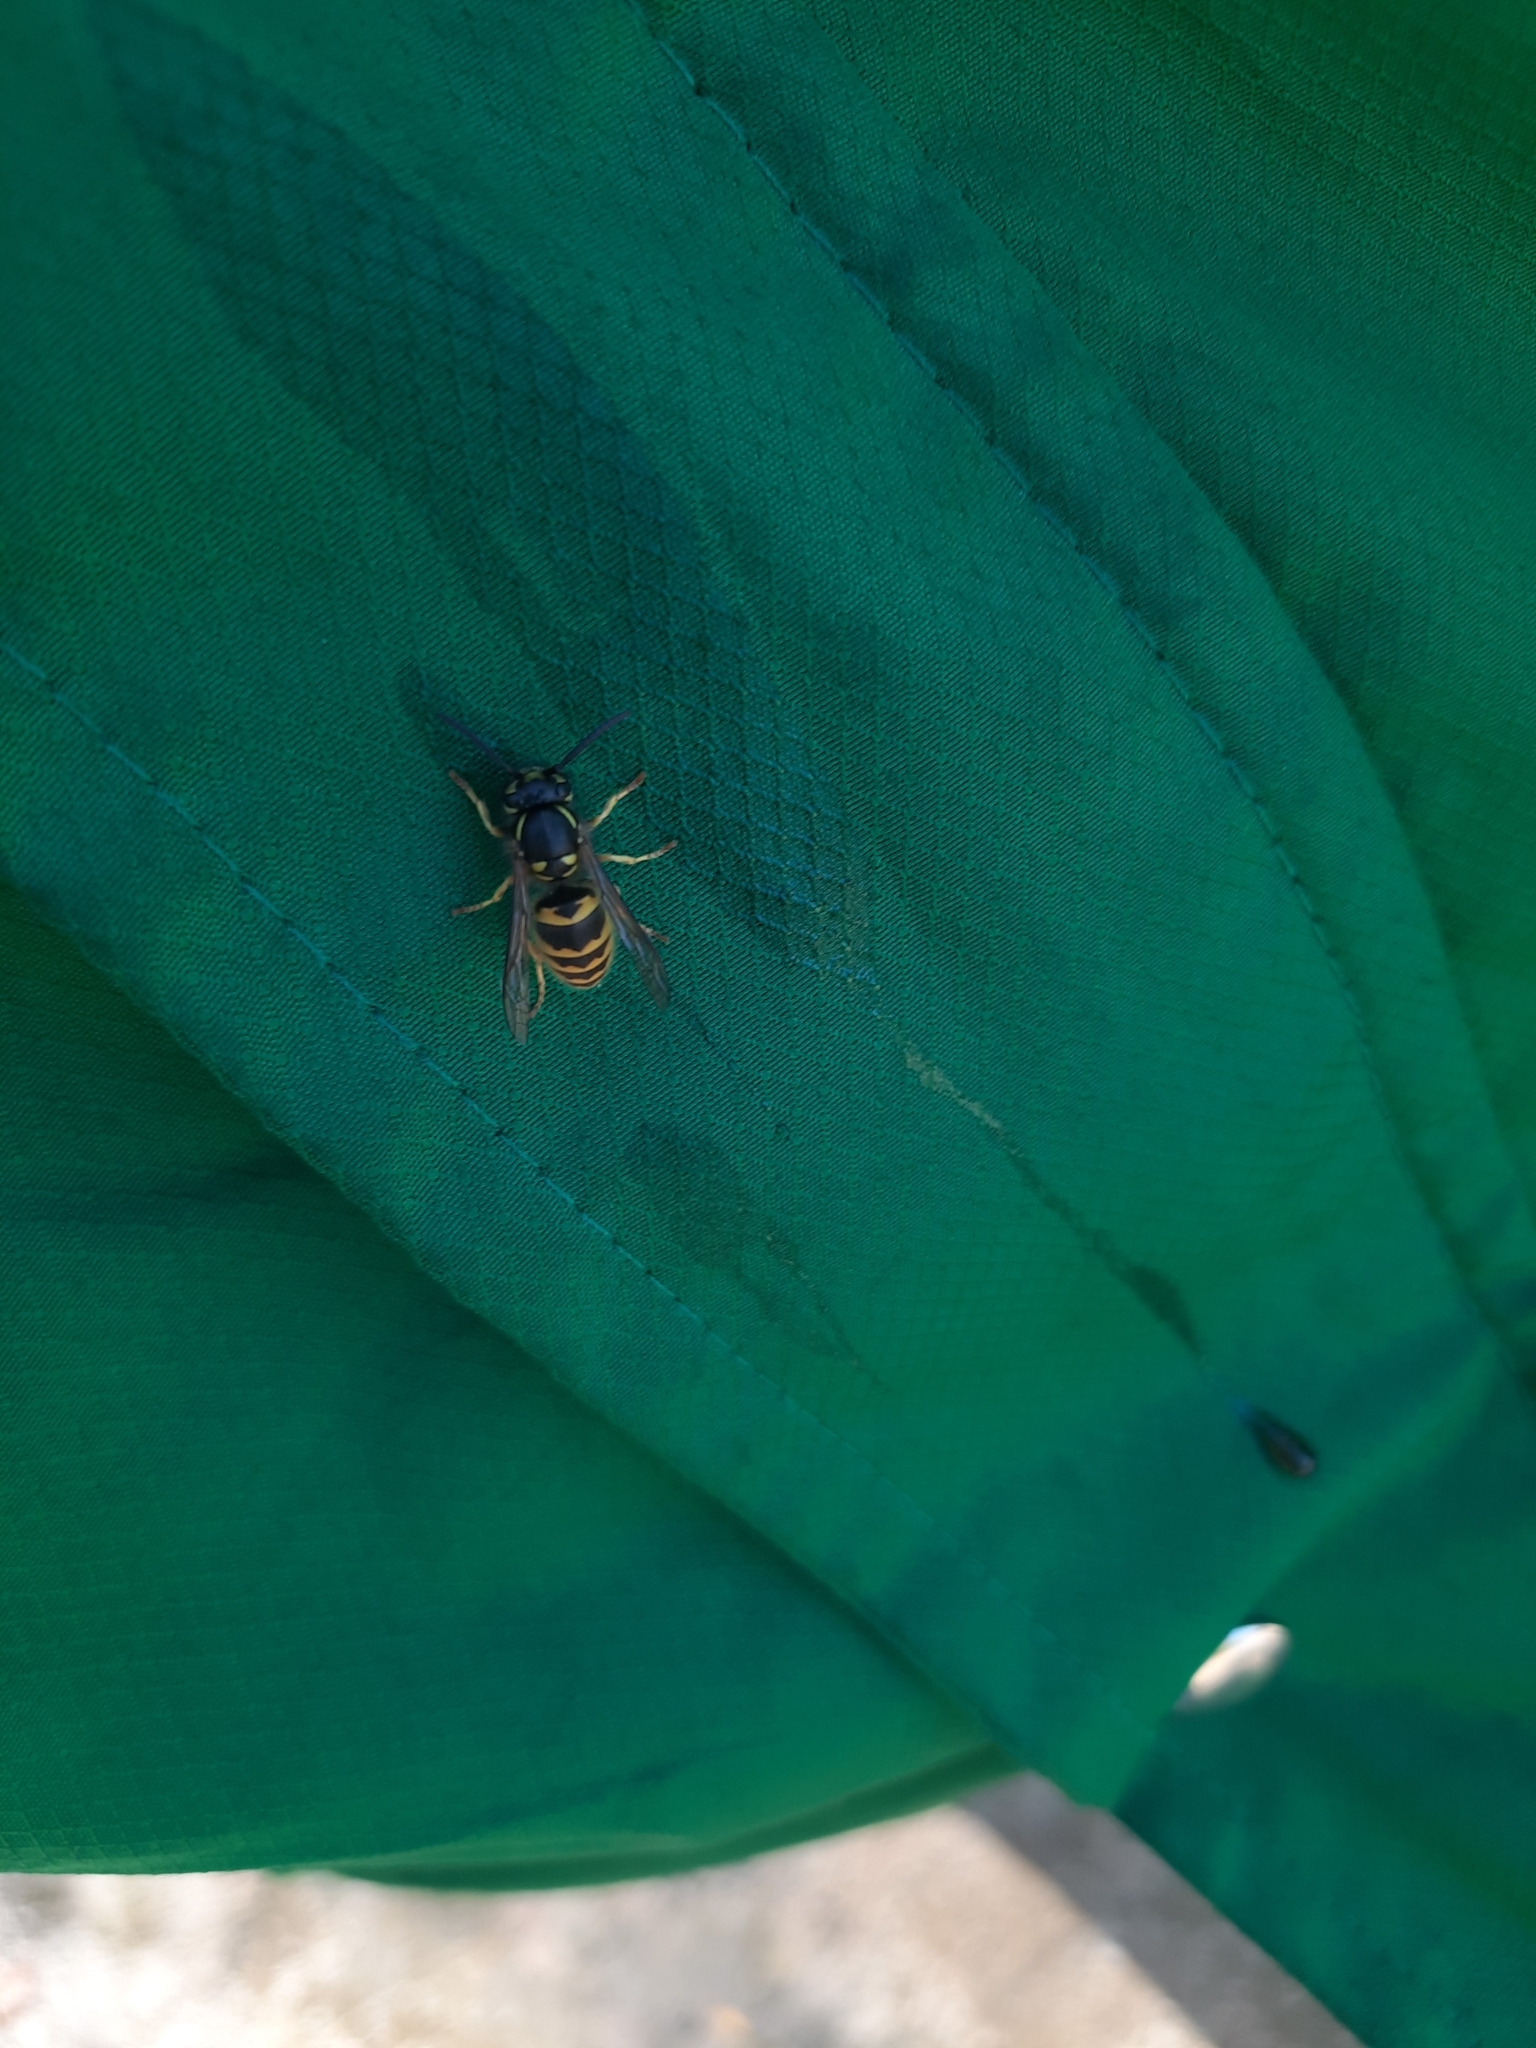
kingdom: Animalia
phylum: Arthropoda
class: Insecta
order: Hymenoptera
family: Vespidae
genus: Vespula
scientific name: Vespula vulgaris
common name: Common wasp
